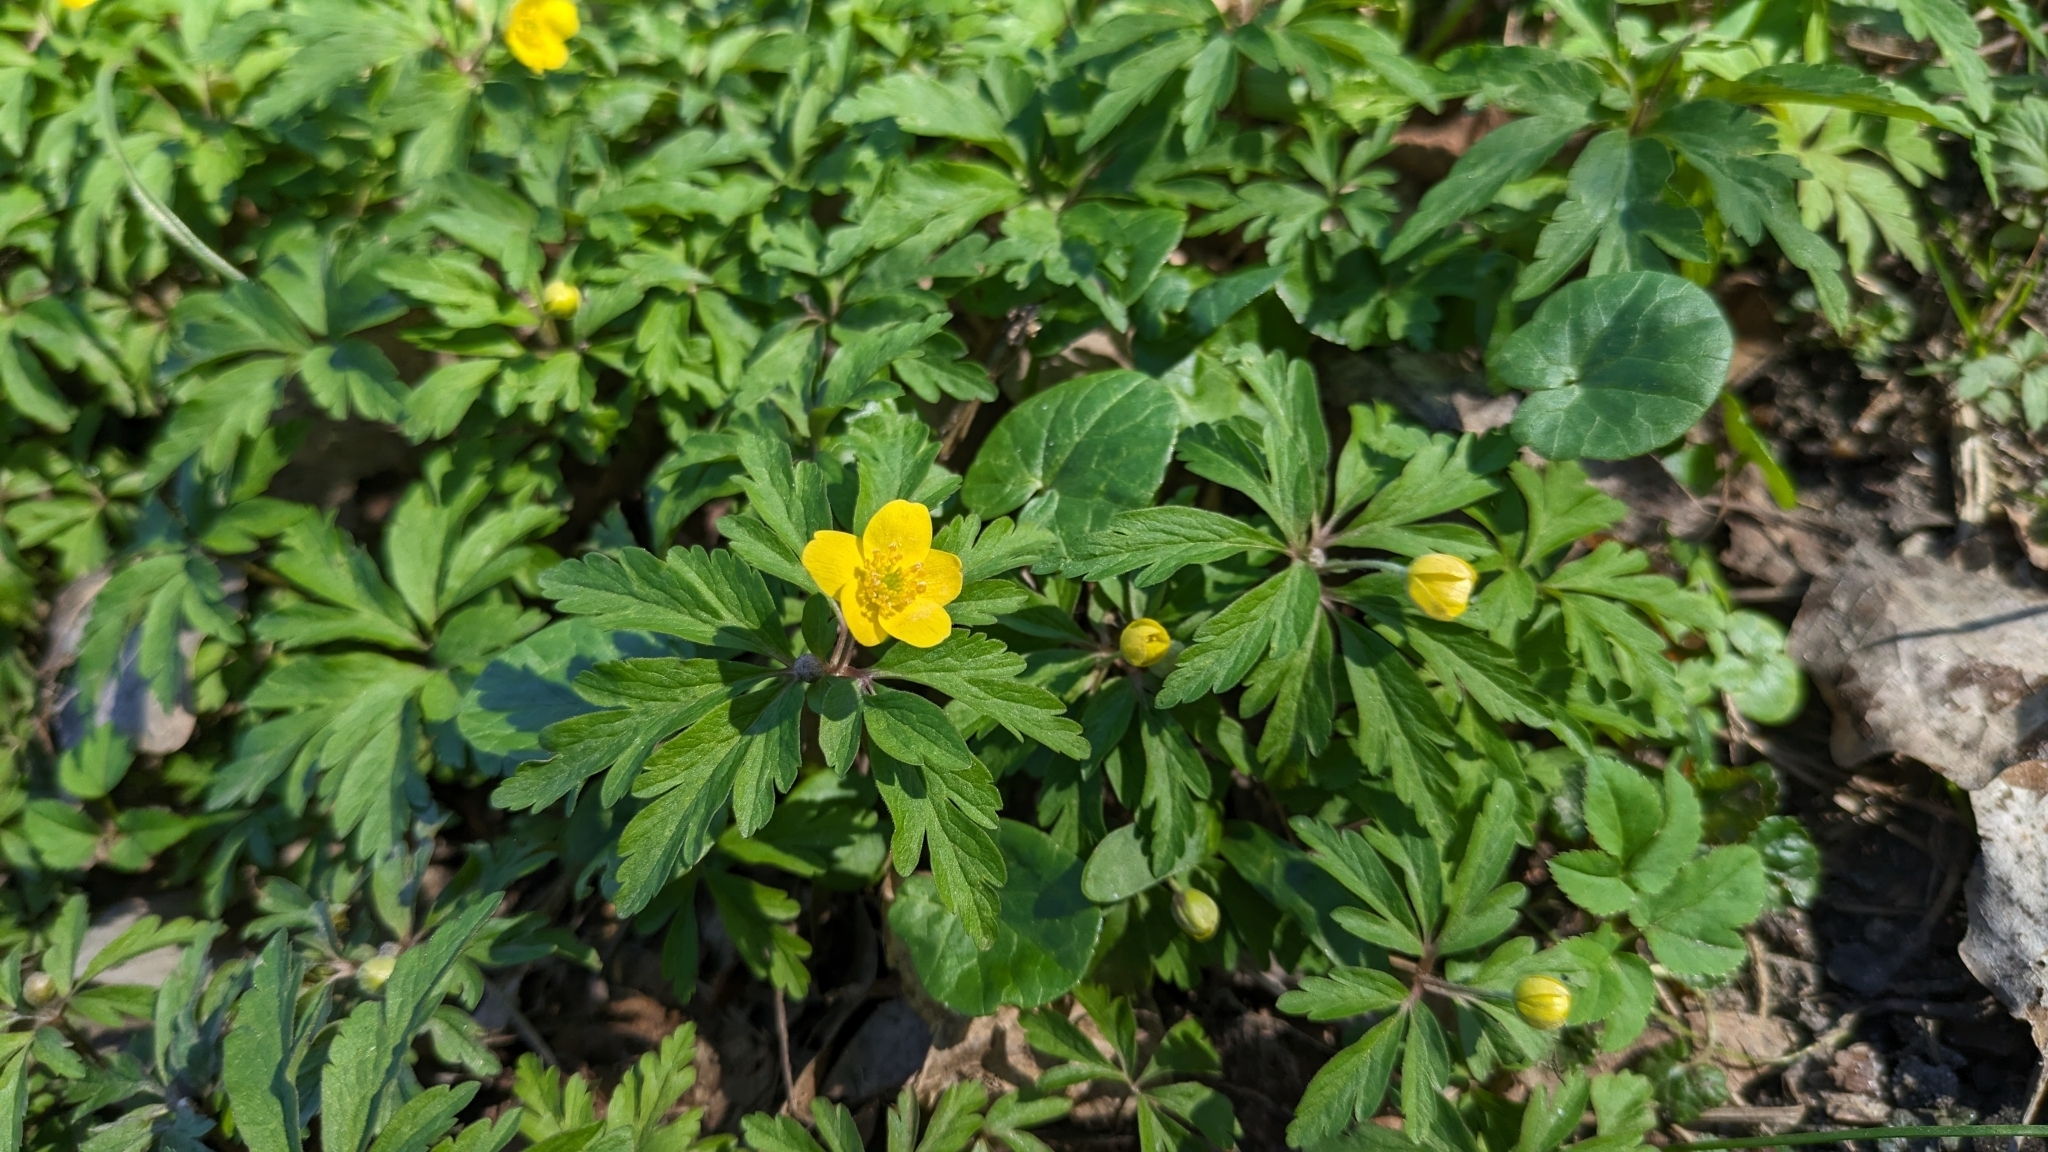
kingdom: Plantae
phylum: Tracheophyta
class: Magnoliopsida
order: Ranunculales
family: Ranunculaceae
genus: Anemone
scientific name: Anemone ranunculoides
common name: Yellow anemone
